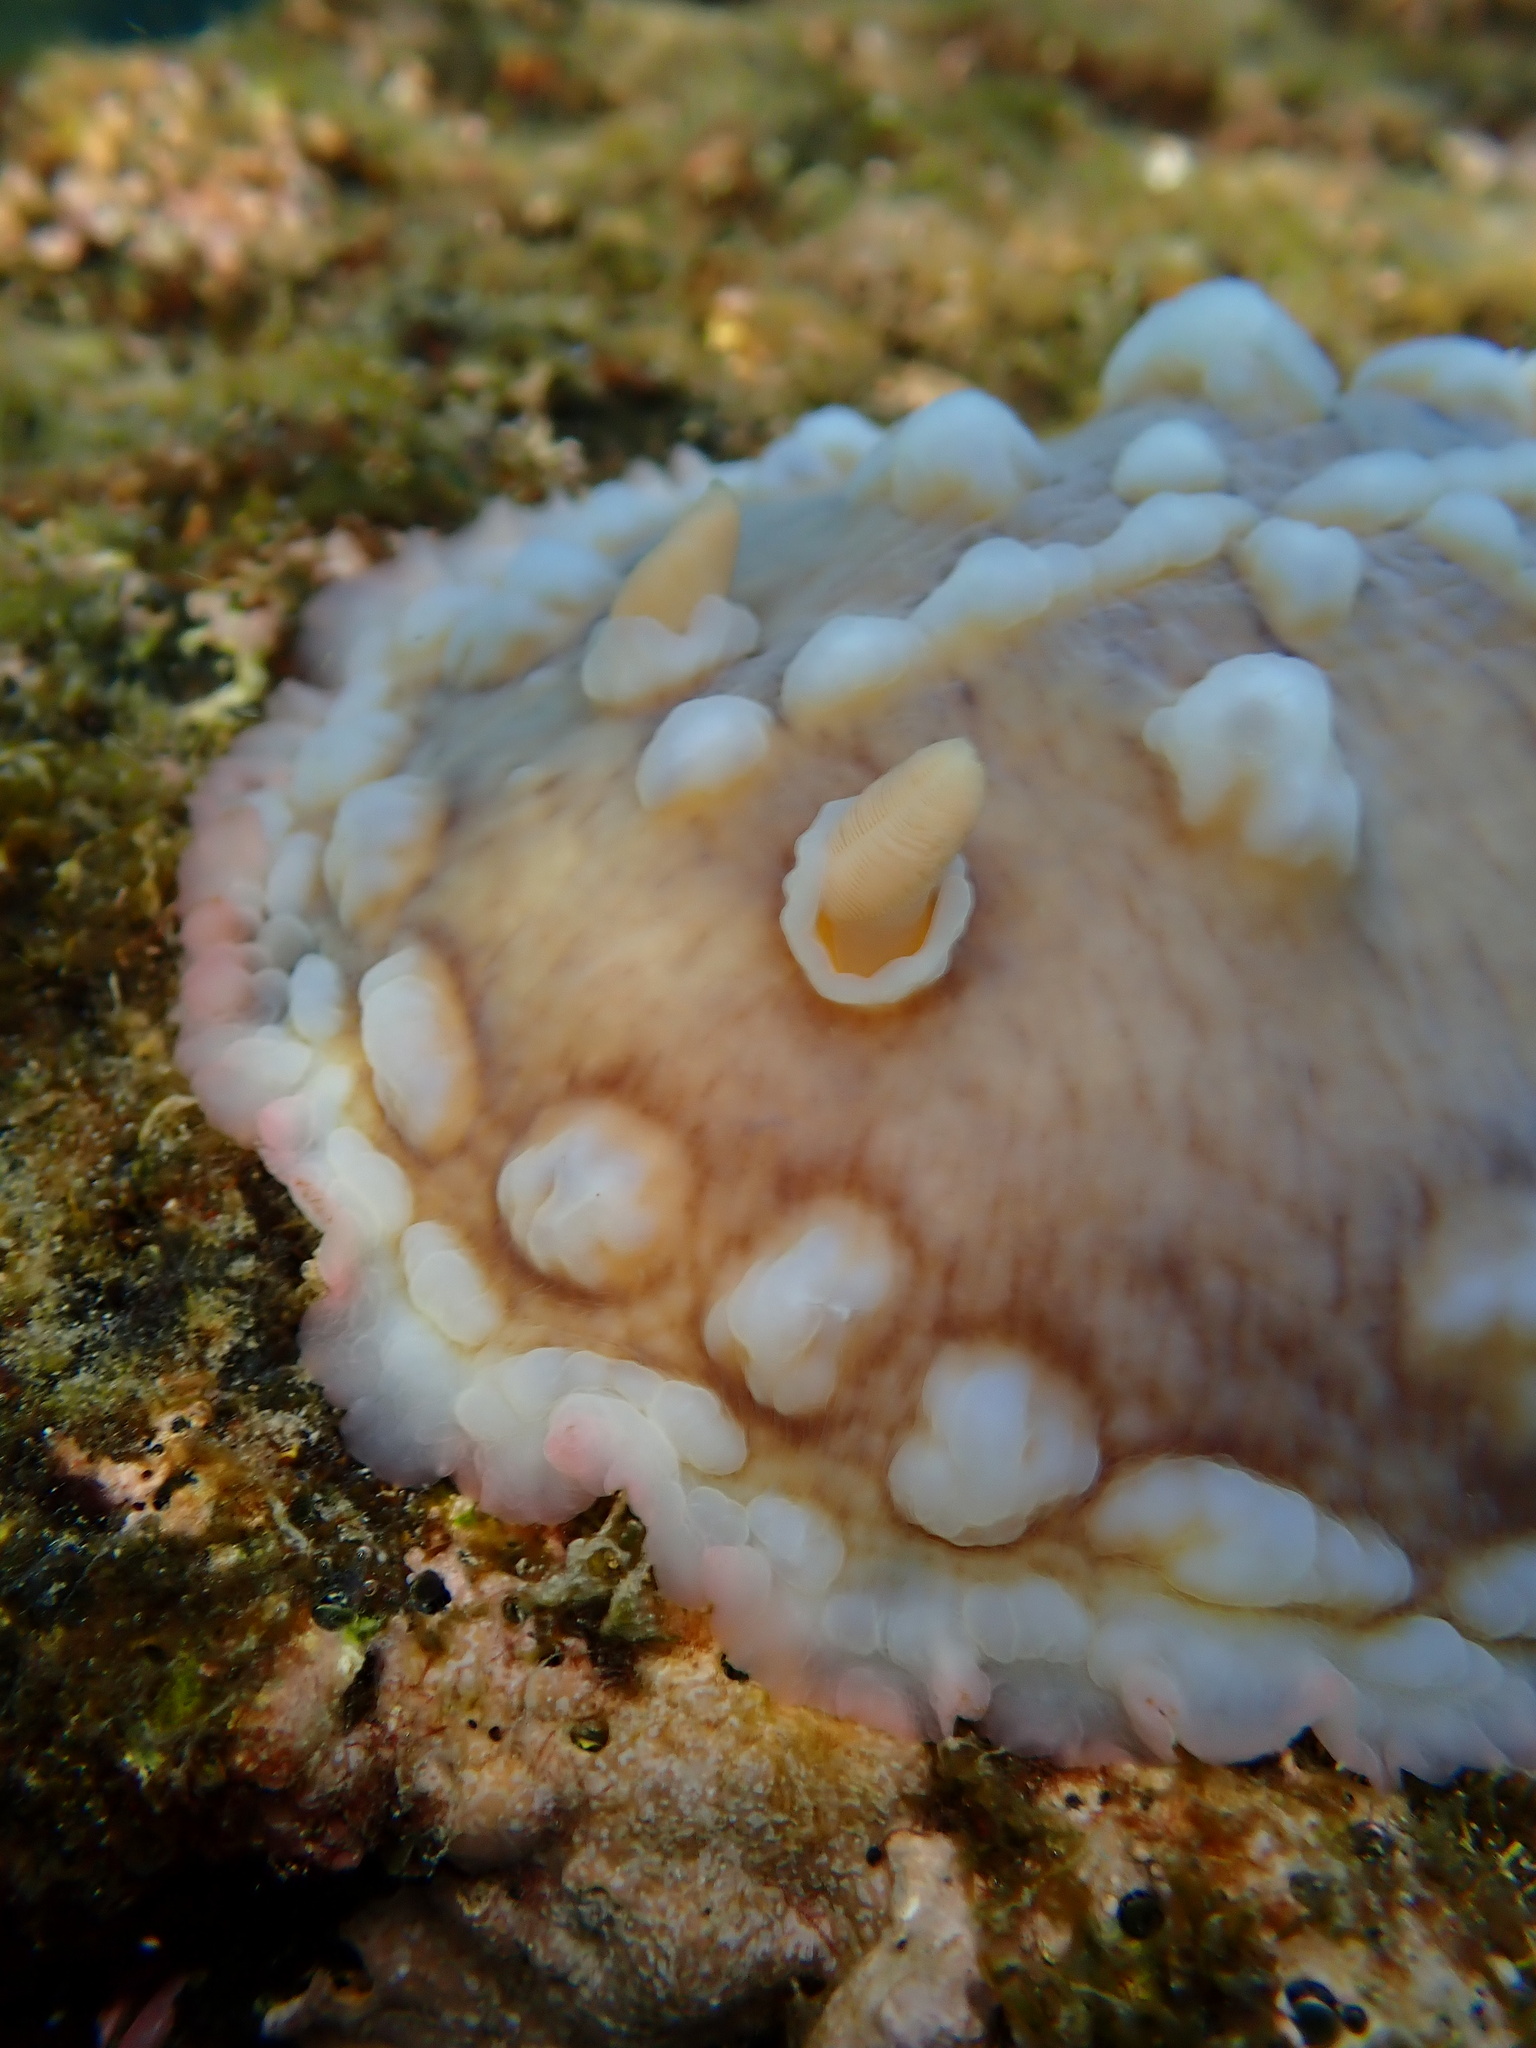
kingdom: Animalia
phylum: Mollusca
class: Gastropoda
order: Nudibranchia
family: Discodorididae
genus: Asteronotus
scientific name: Asteronotus cespitosus
